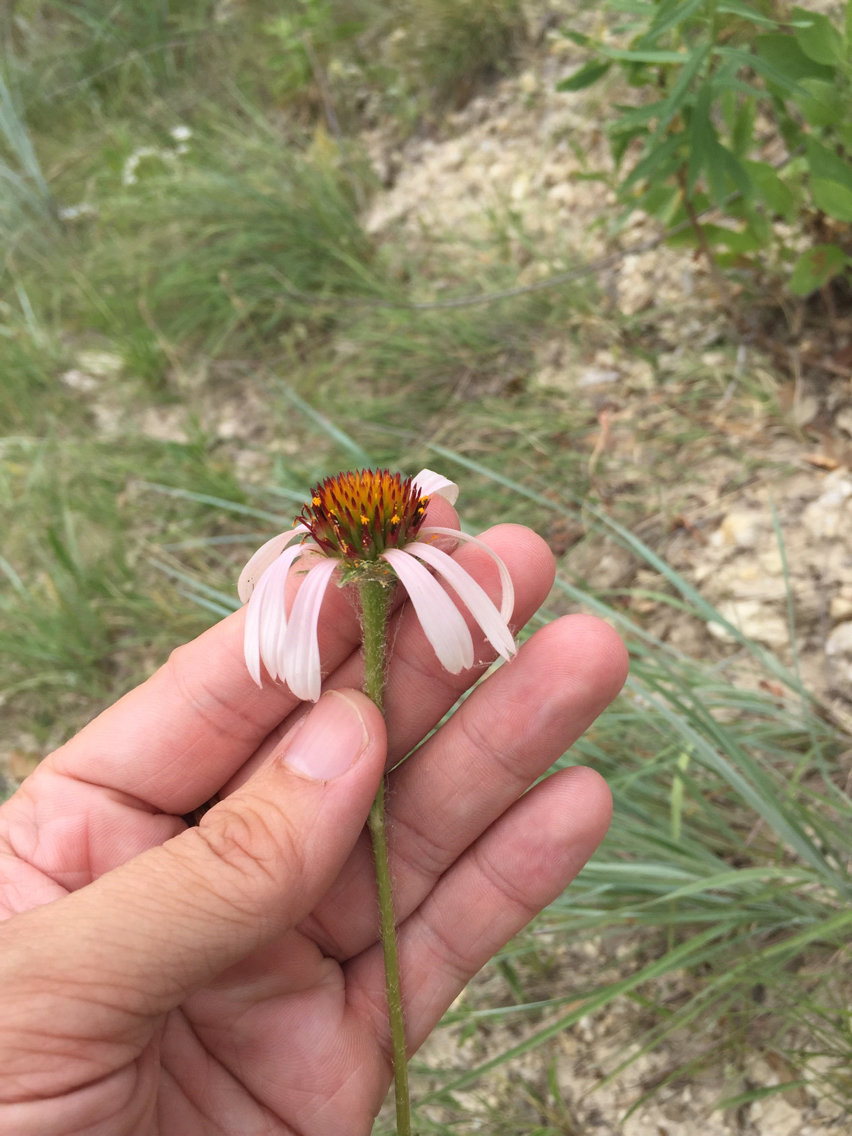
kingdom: Plantae
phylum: Tracheophyta
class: Magnoliopsida
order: Asterales
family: Asteraceae
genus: Echinacea
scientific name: Echinacea angustifolia
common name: Black-sampson echinacea
